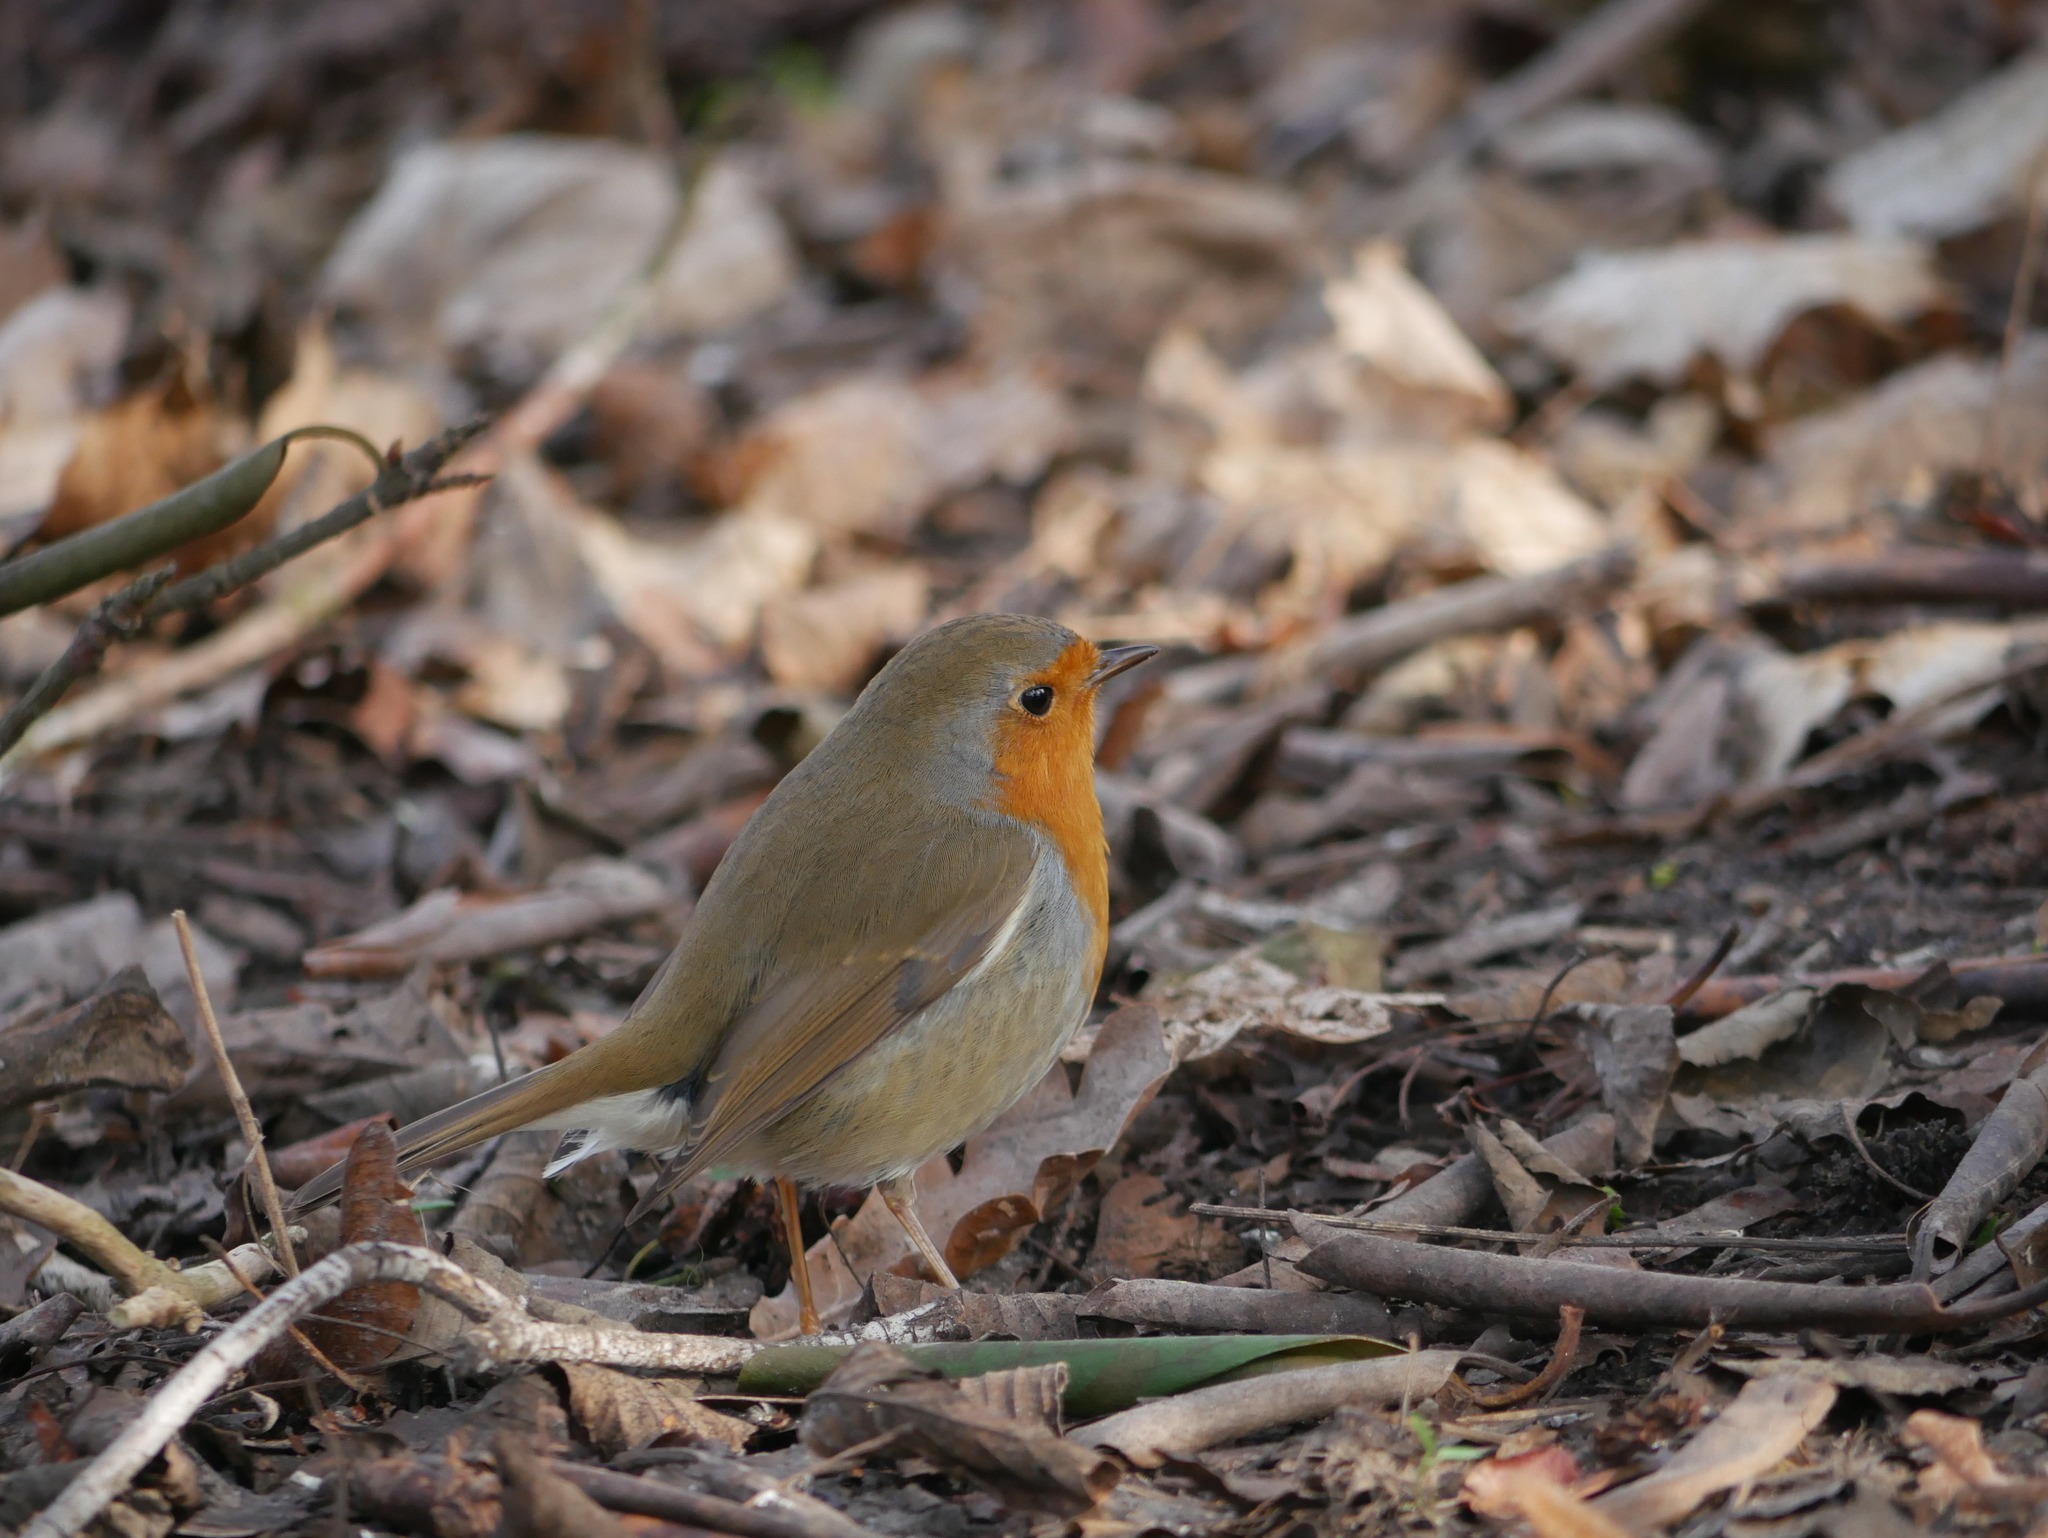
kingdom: Animalia
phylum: Chordata
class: Aves
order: Passeriformes
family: Muscicapidae
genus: Erithacus
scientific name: Erithacus rubecula
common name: European robin
